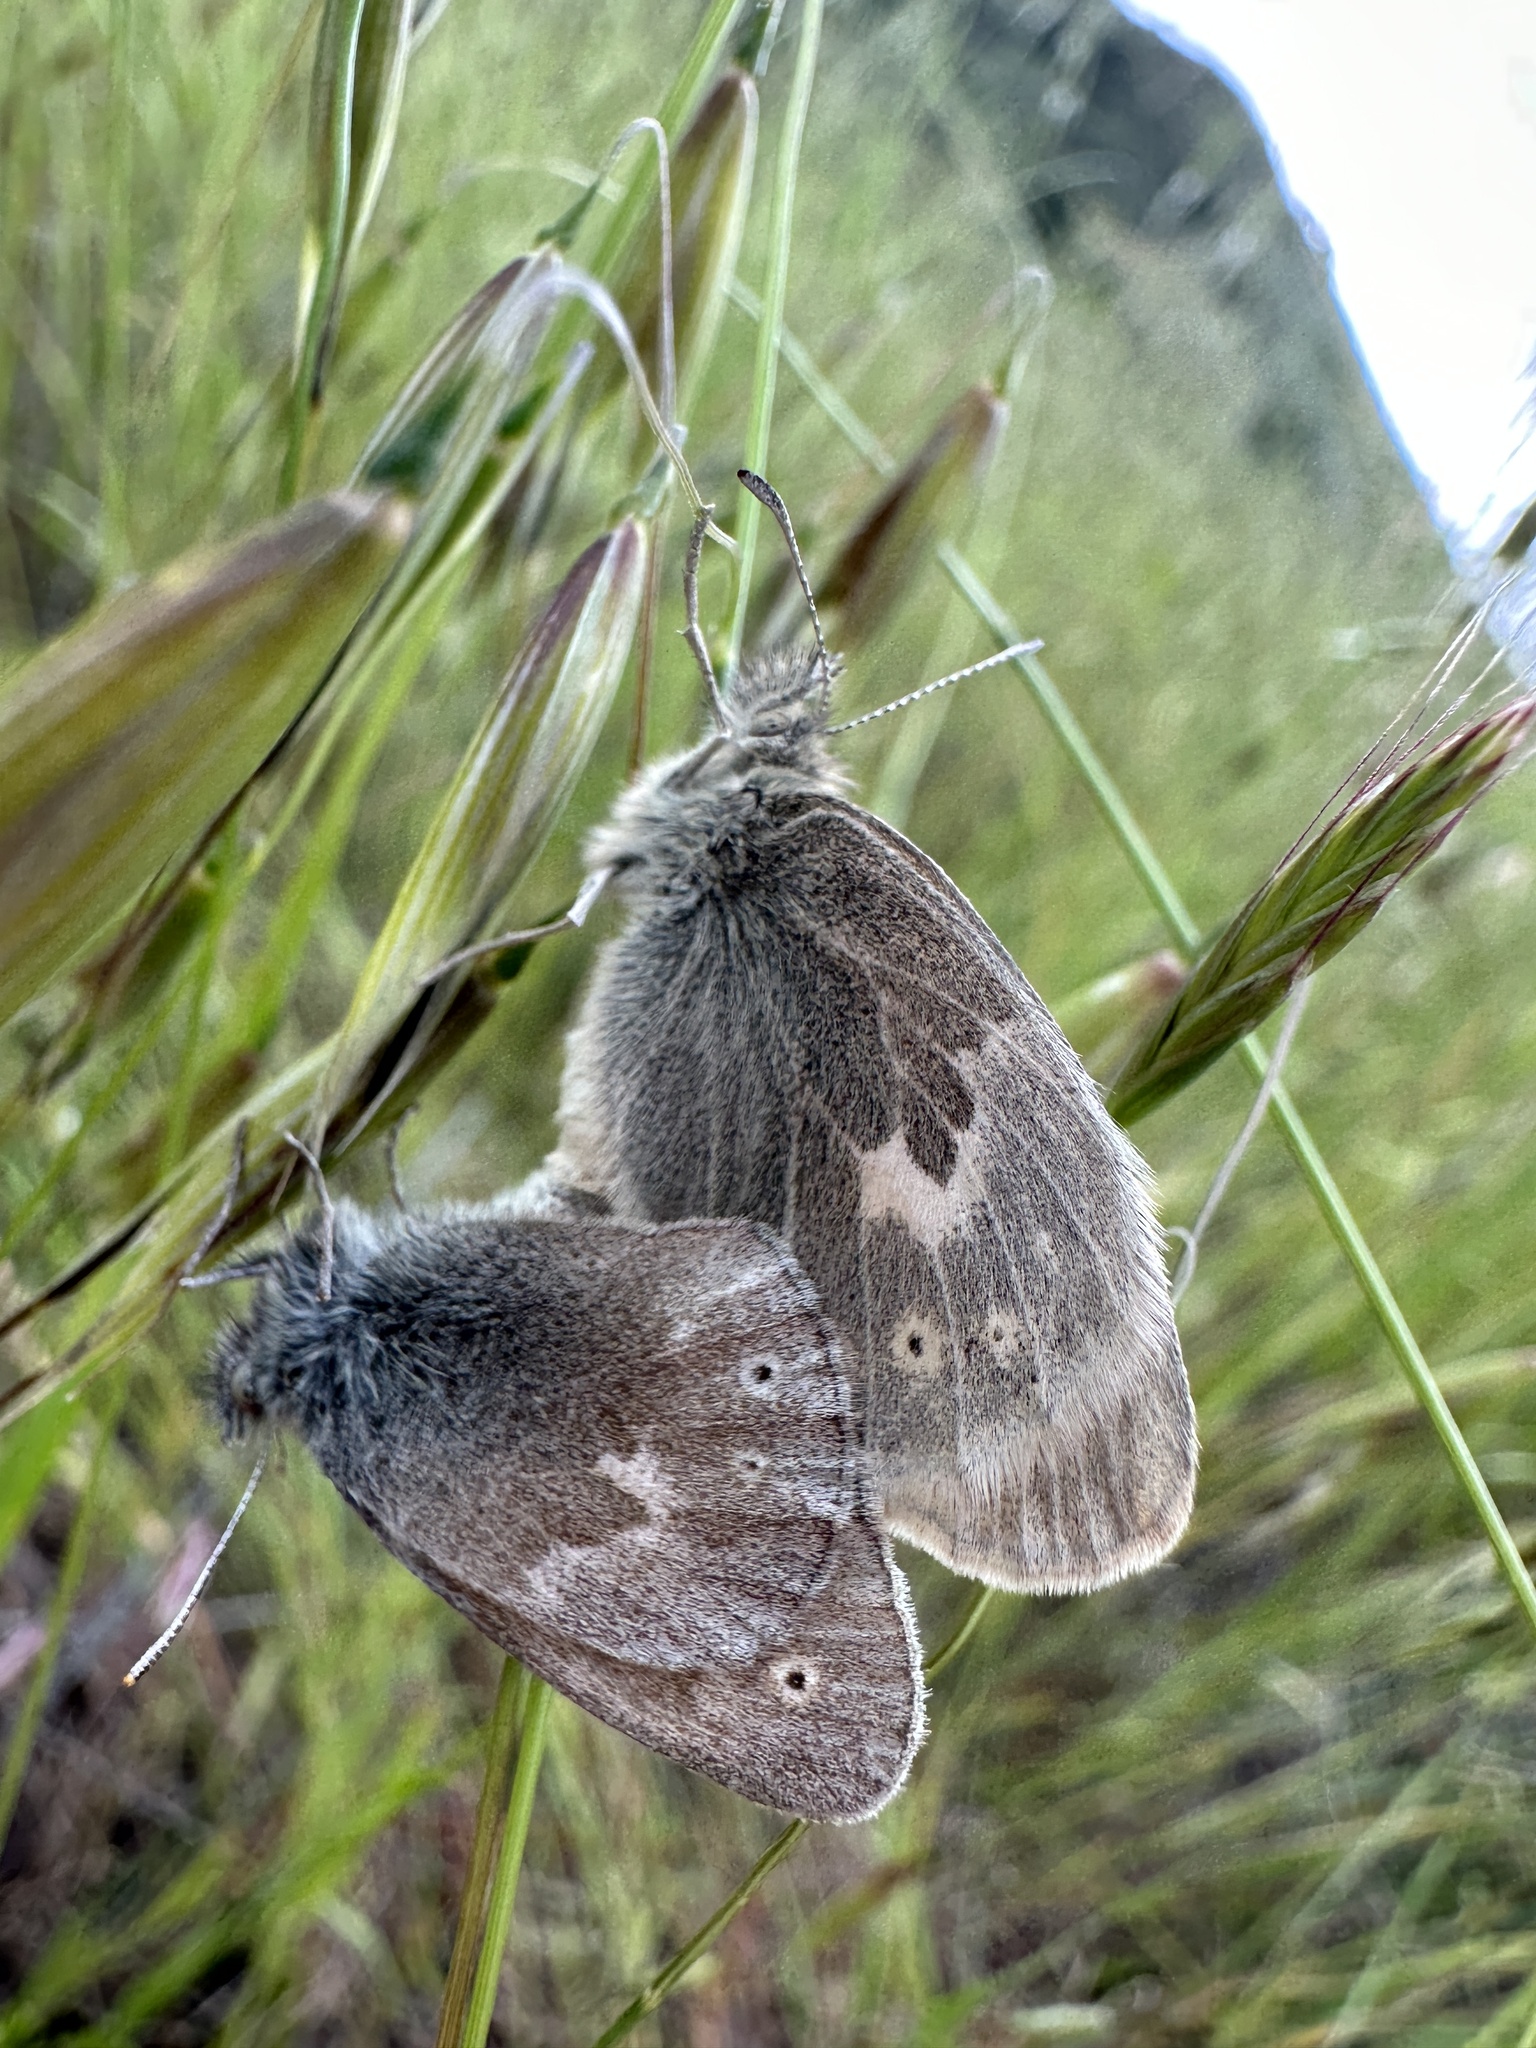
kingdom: Animalia
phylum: Arthropoda
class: Insecta
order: Lepidoptera
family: Nymphalidae
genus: Coenonympha
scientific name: Coenonympha california
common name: Common ringlet
